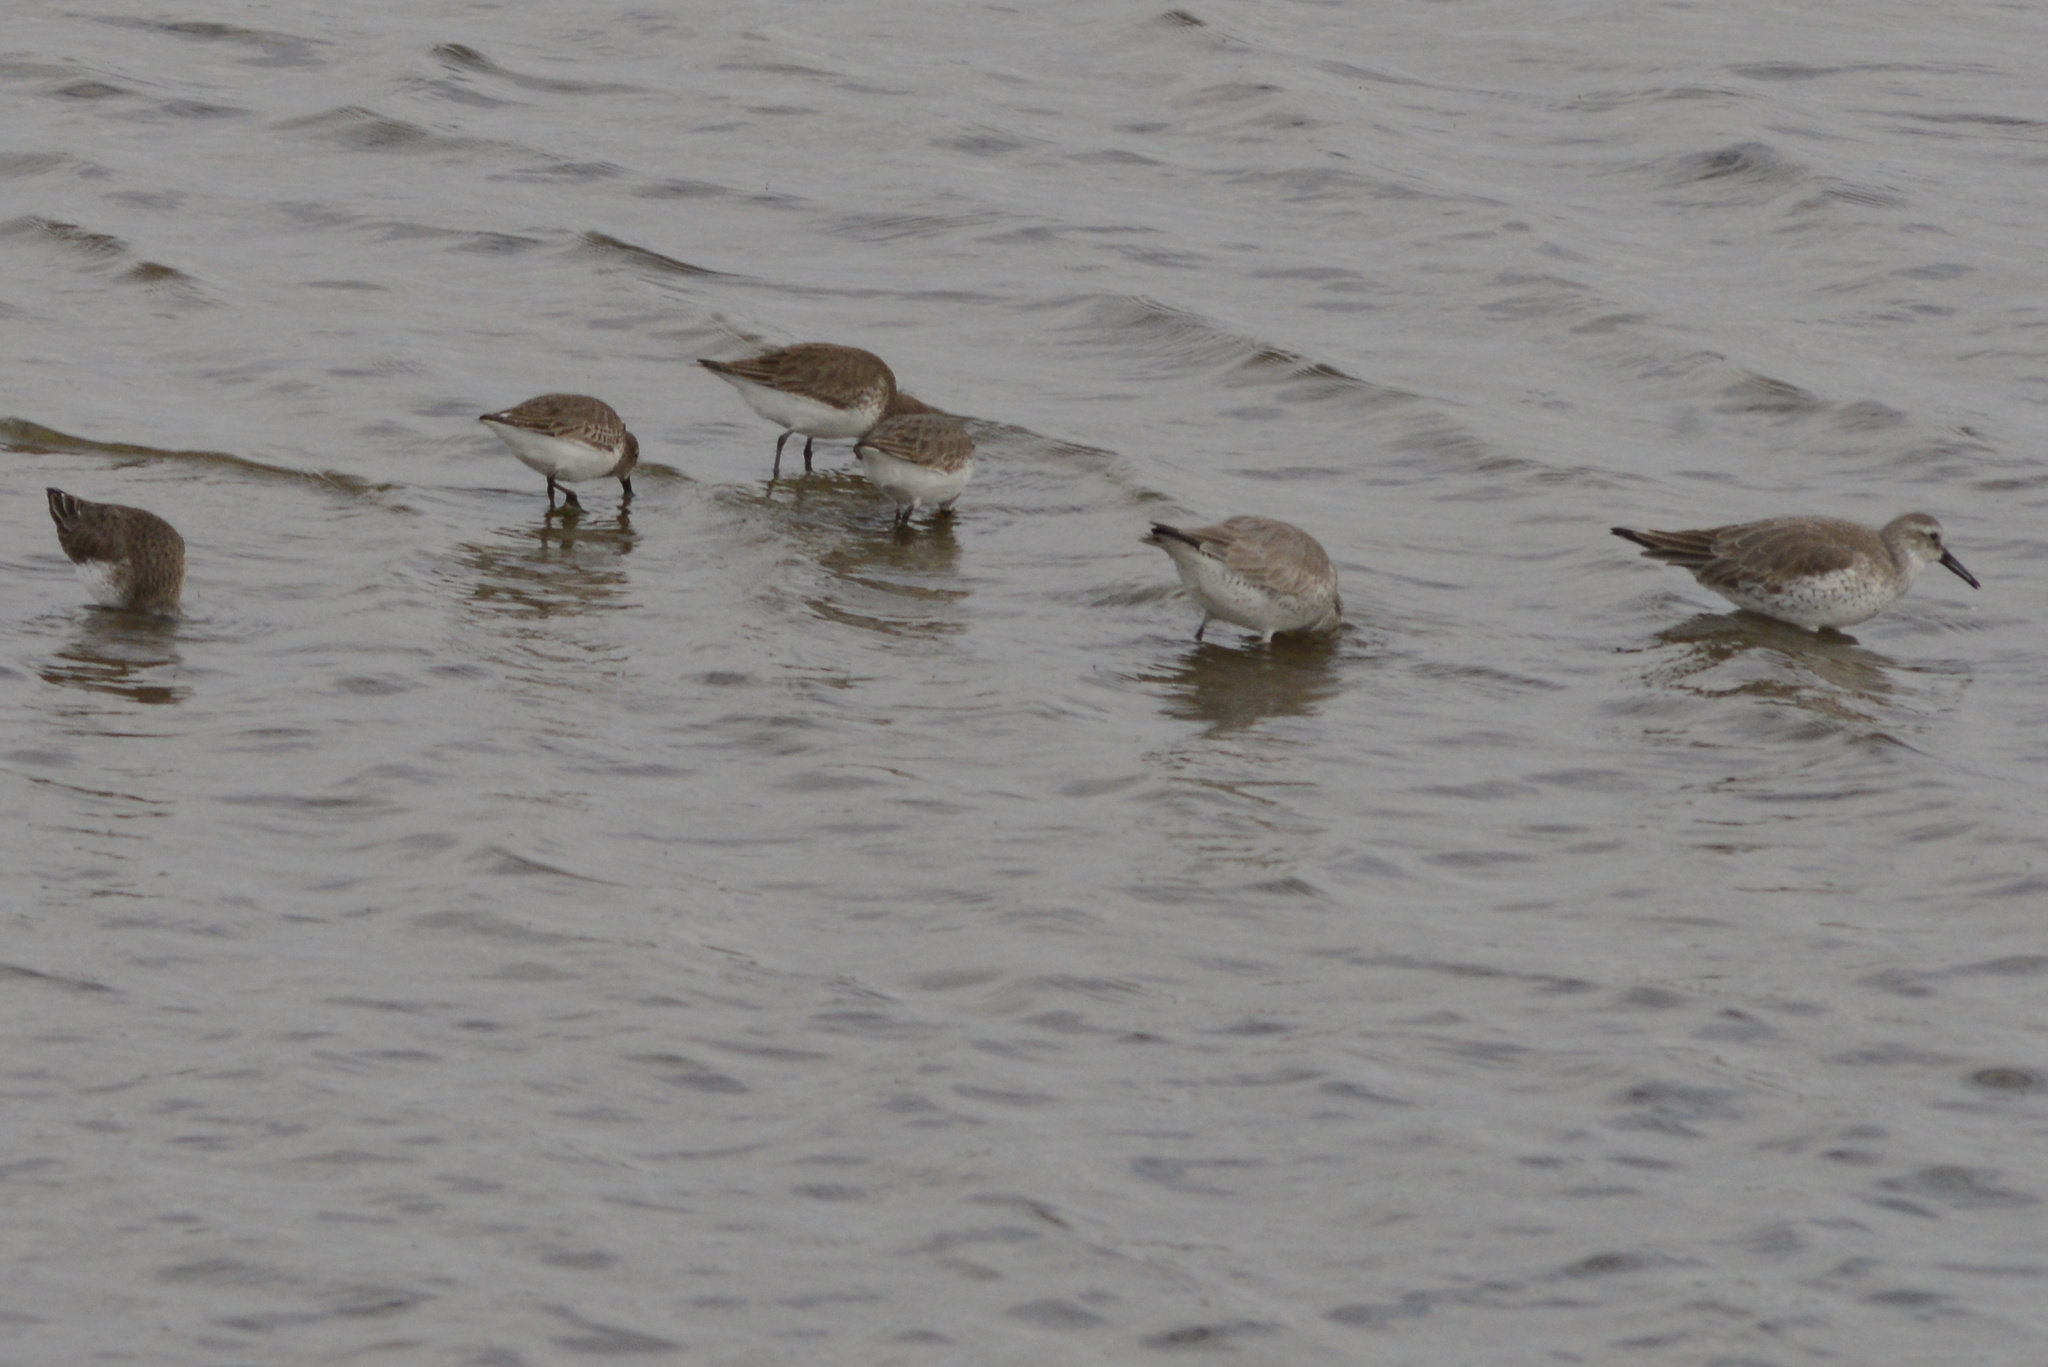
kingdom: Animalia
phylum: Chordata
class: Aves
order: Charadriiformes
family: Scolopacidae
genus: Calidris
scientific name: Calidris canutus
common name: Red knot
